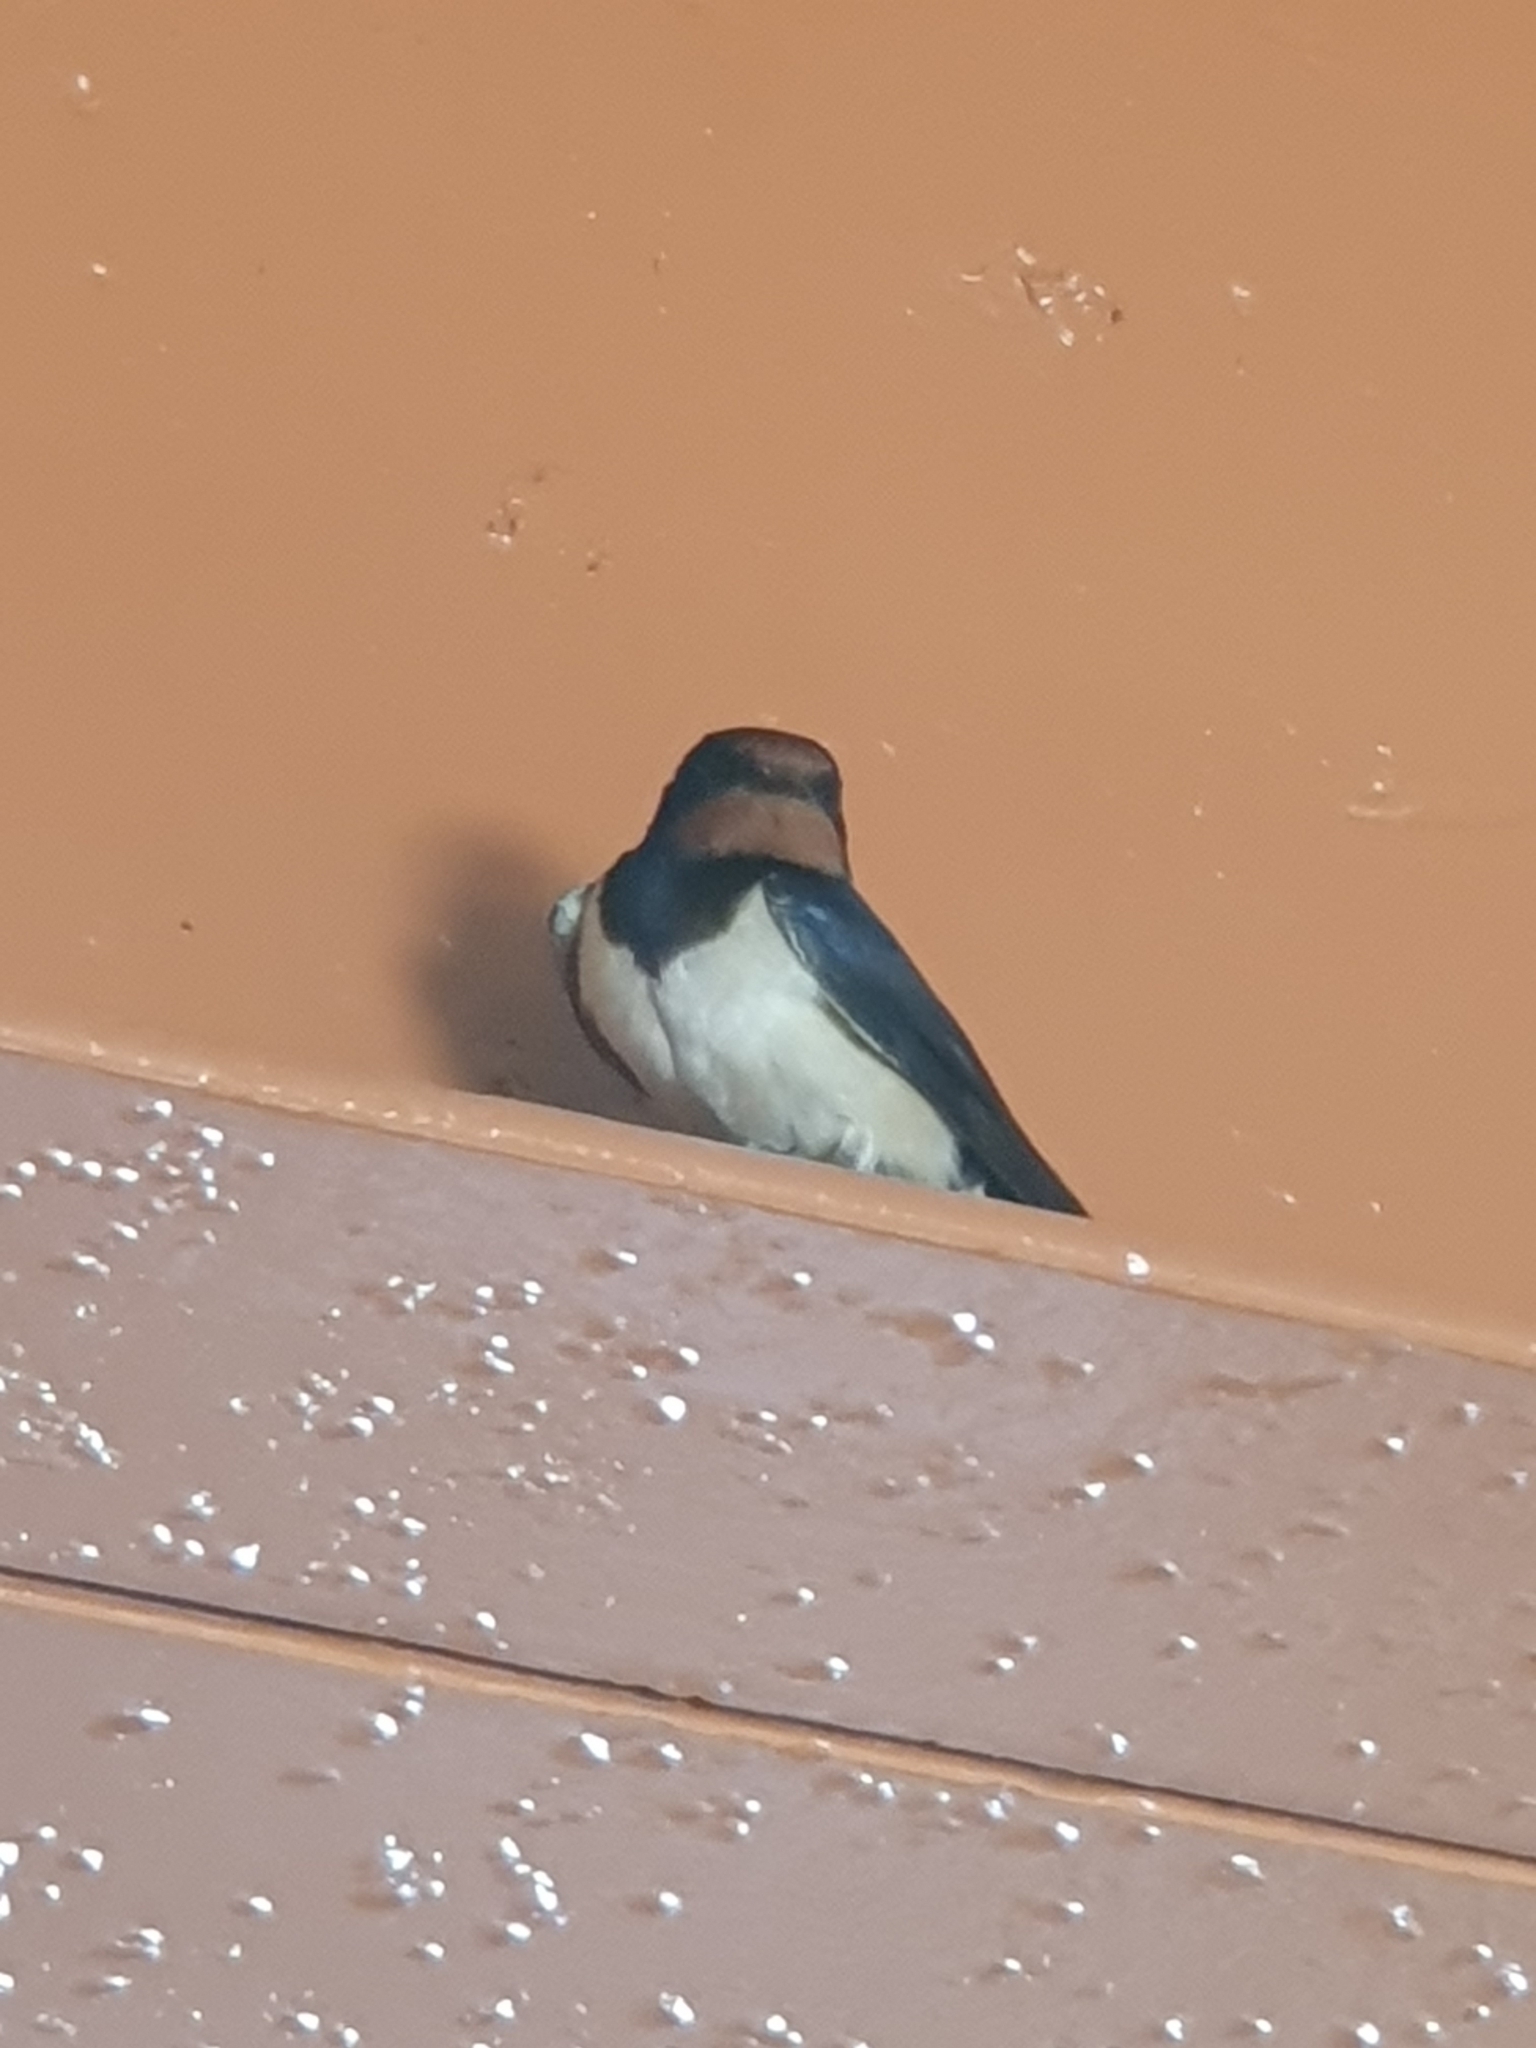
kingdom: Animalia
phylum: Chordata
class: Aves
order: Passeriformes
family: Hirundinidae
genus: Hirundo
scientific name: Hirundo rustica
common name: Barn swallow
